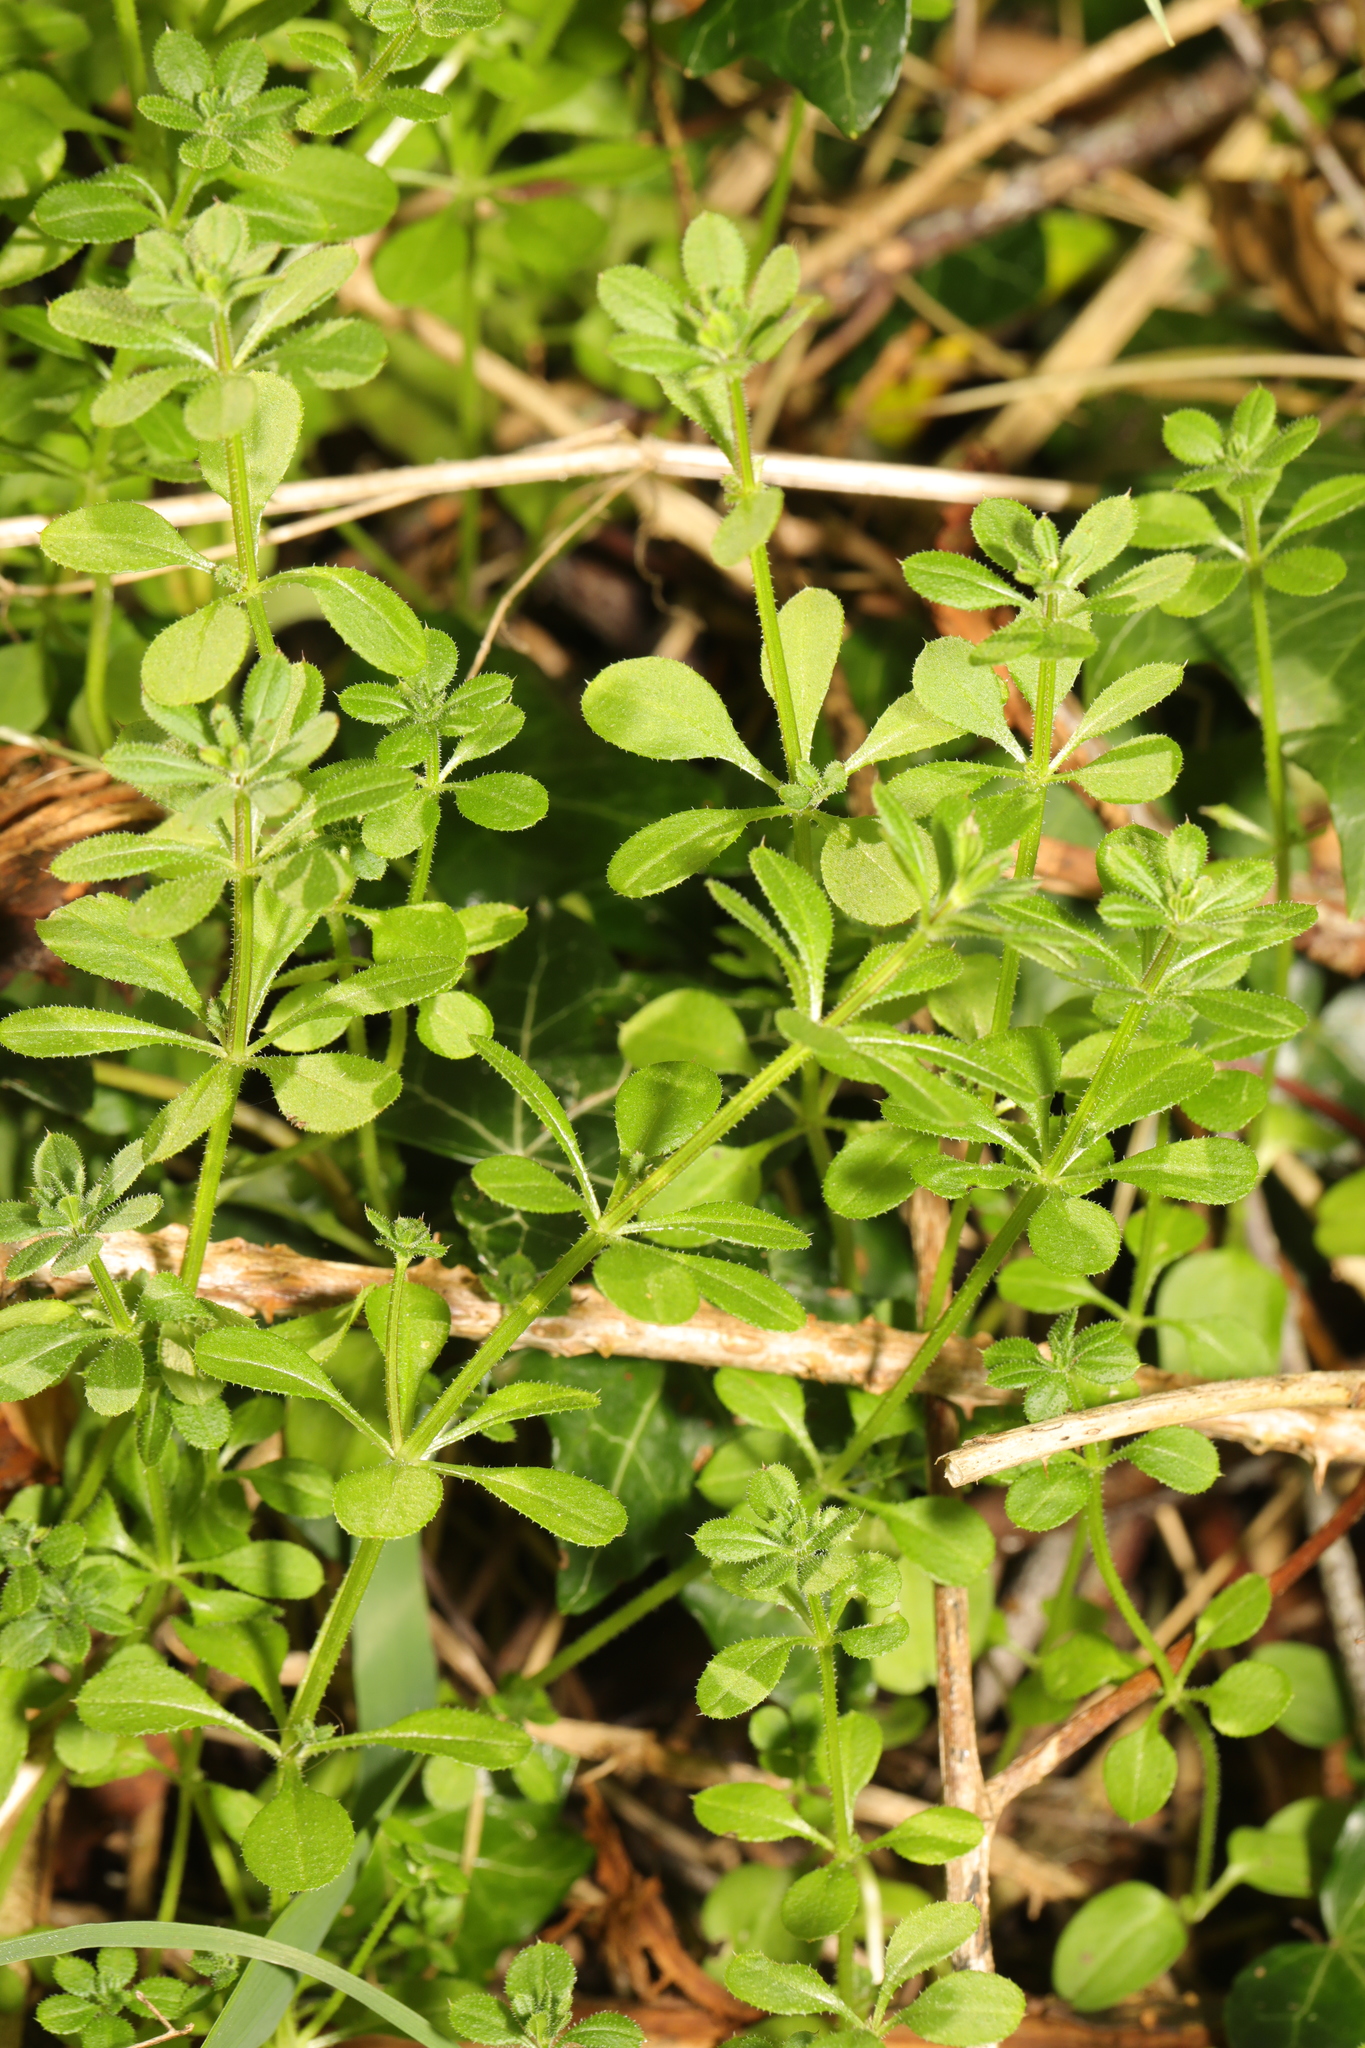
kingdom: Plantae
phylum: Tracheophyta
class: Magnoliopsida
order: Gentianales
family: Rubiaceae
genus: Galium
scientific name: Galium aparine
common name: Cleavers
